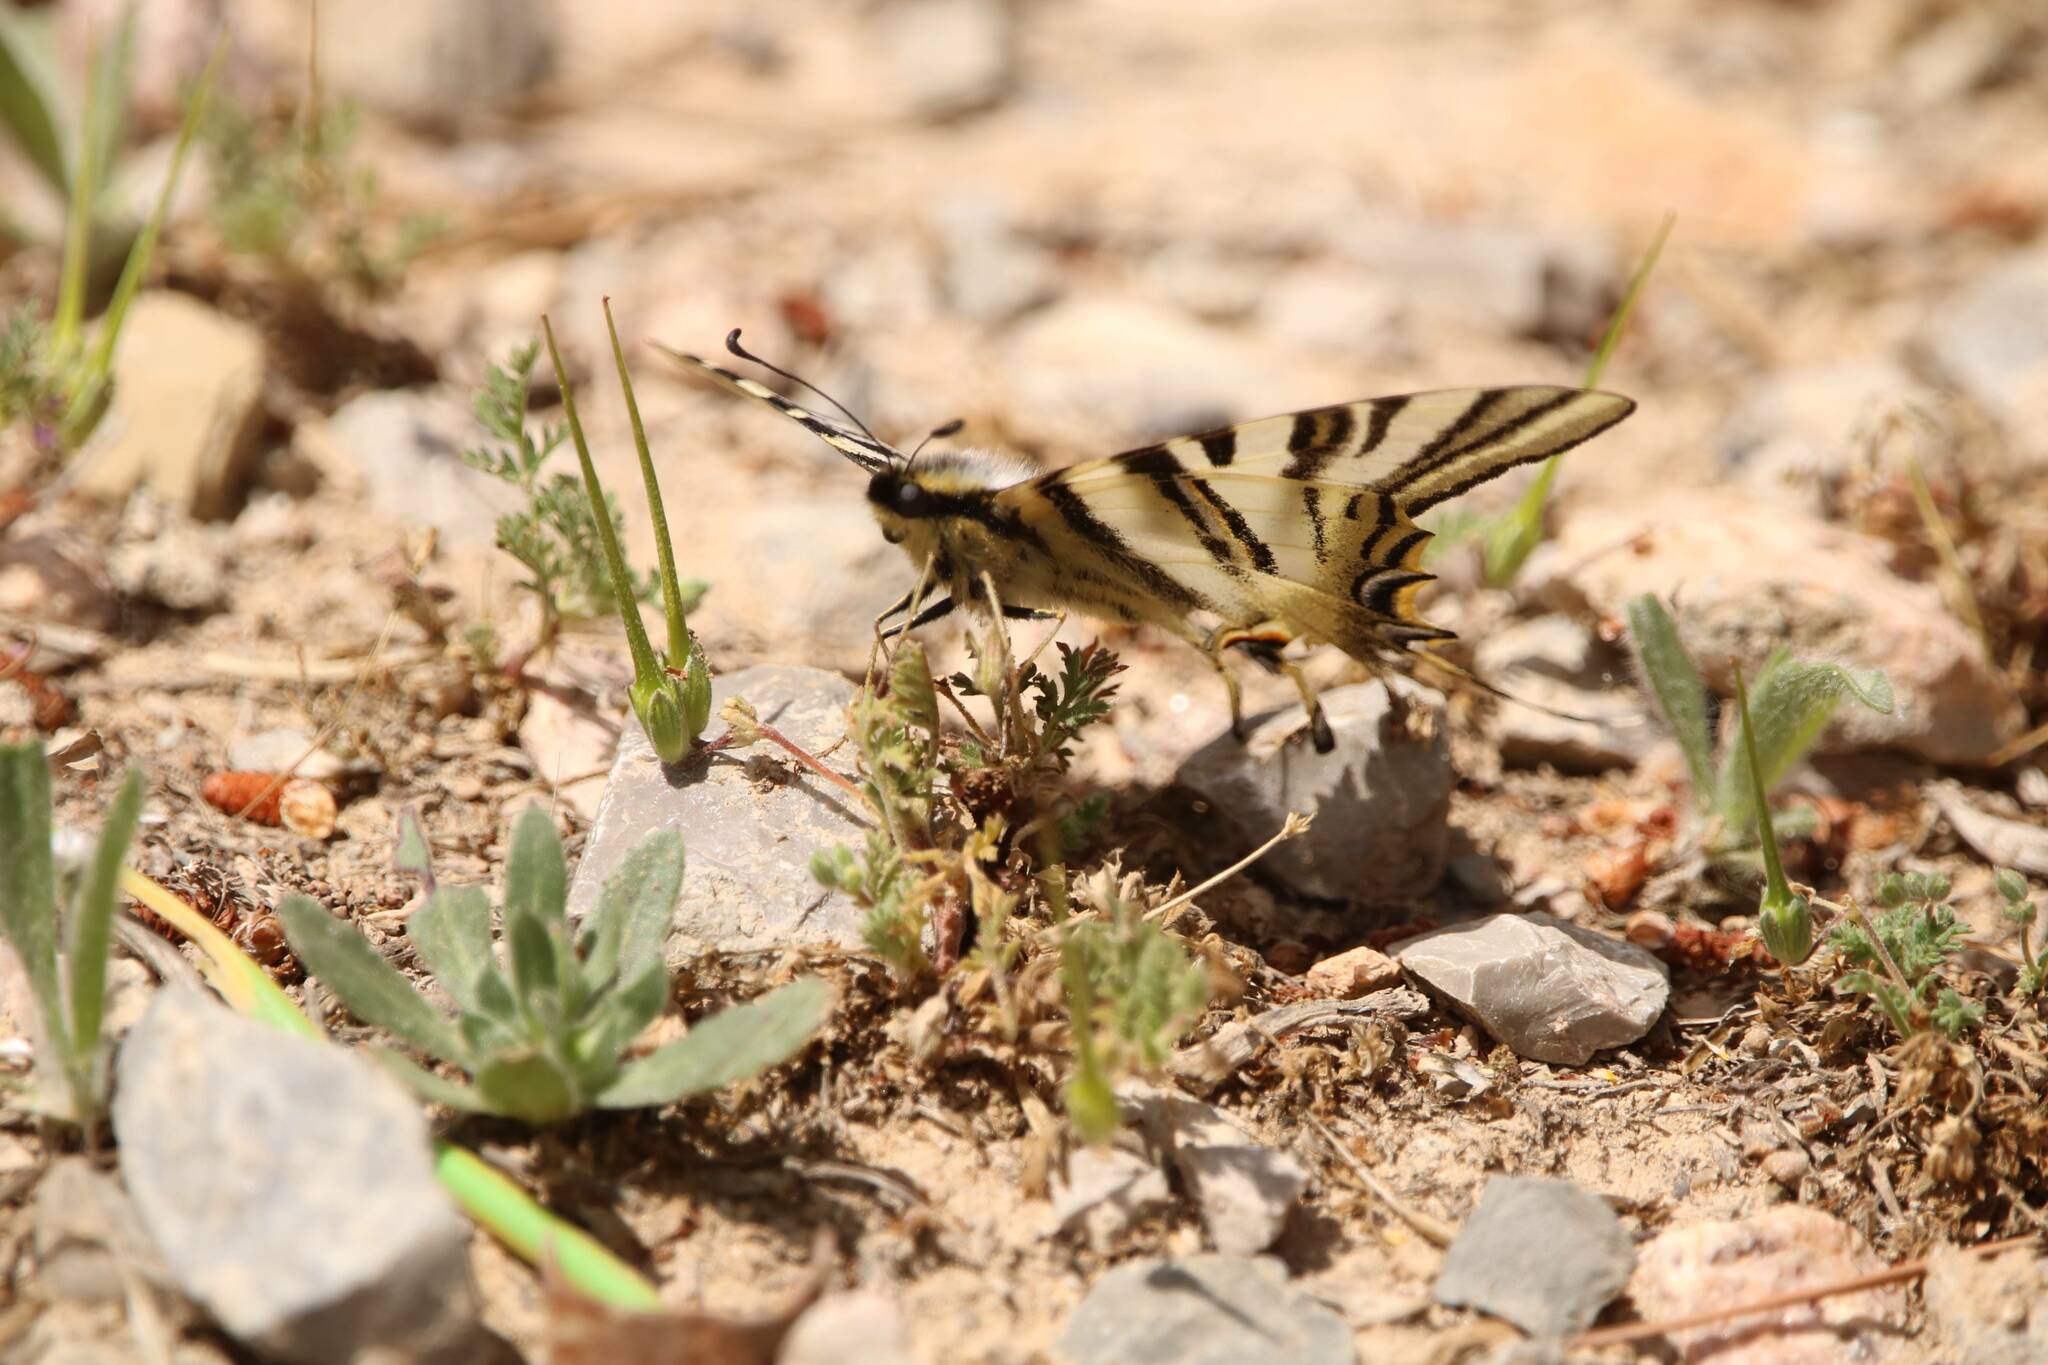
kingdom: Animalia
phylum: Arthropoda
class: Insecta
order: Lepidoptera
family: Papilionidae
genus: Iphiclides
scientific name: Iphiclides feisthamelii
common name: Iberian scarce swallowtail
